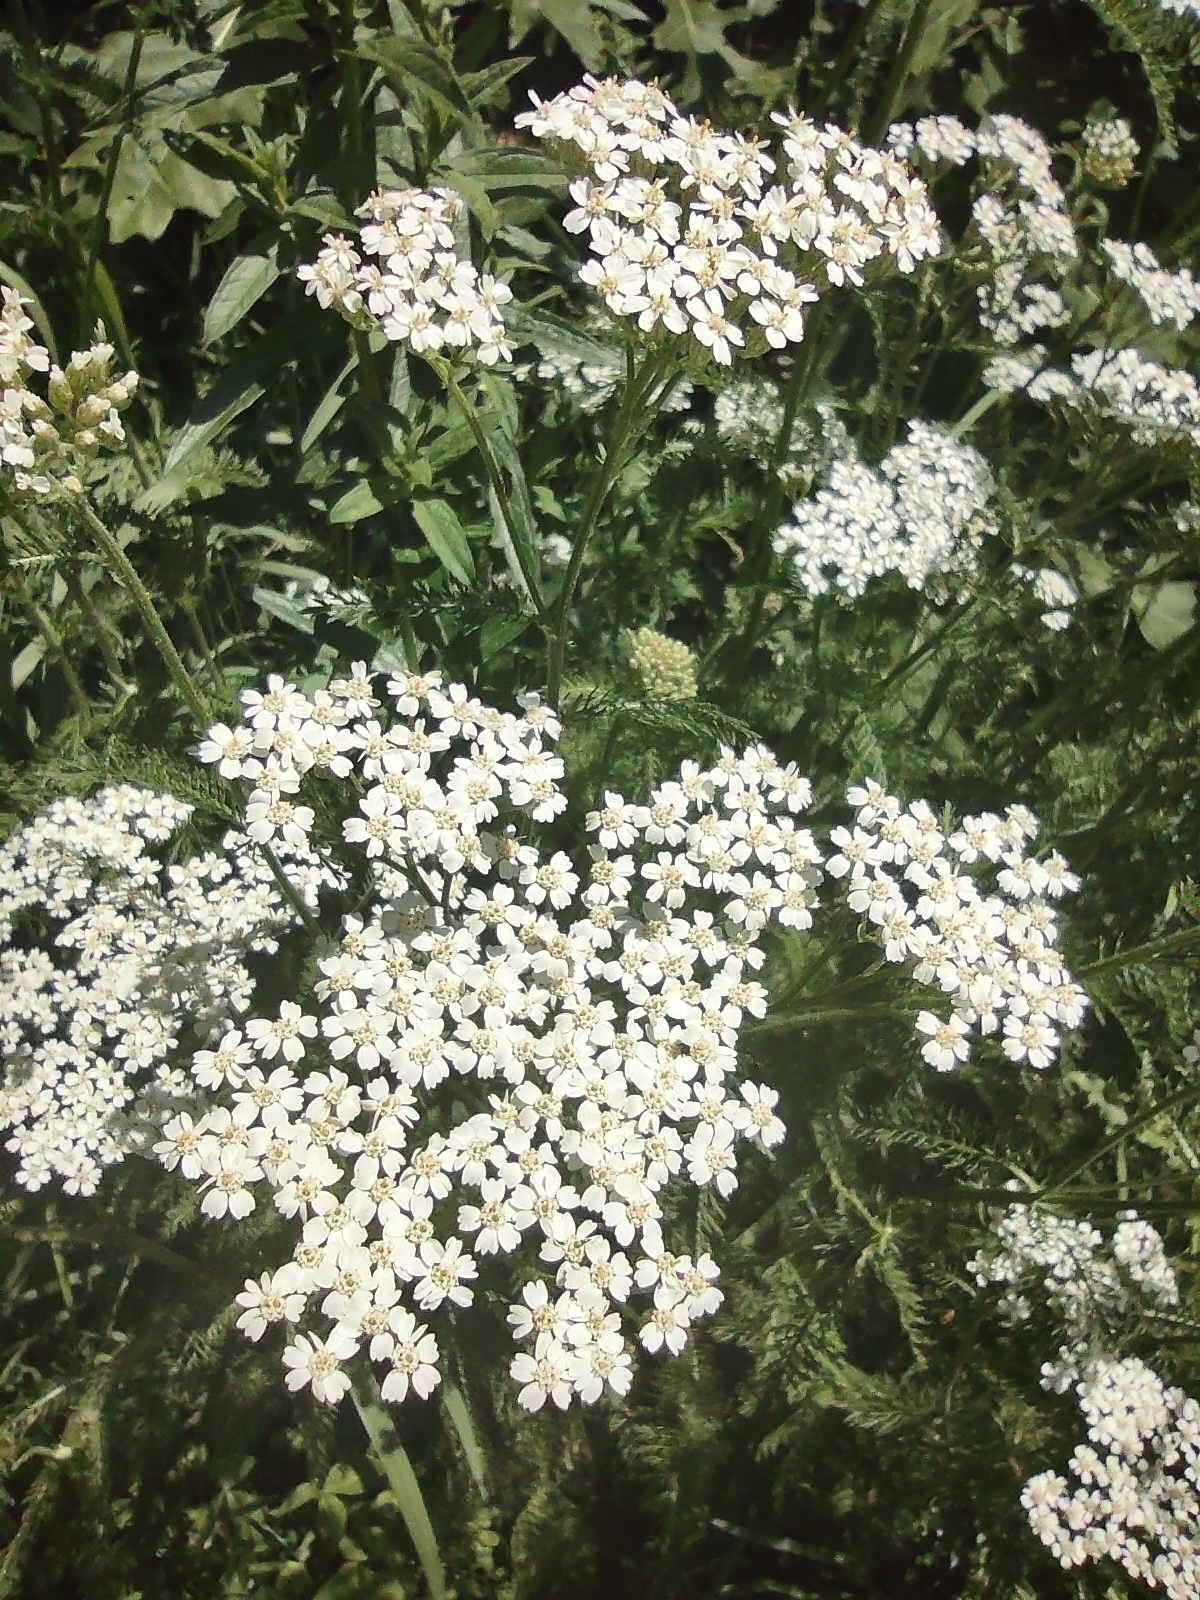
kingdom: Plantae
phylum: Tracheophyta
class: Magnoliopsida
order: Asterales
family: Asteraceae
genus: Achillea
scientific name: Achillea millefolium
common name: Yarrow
